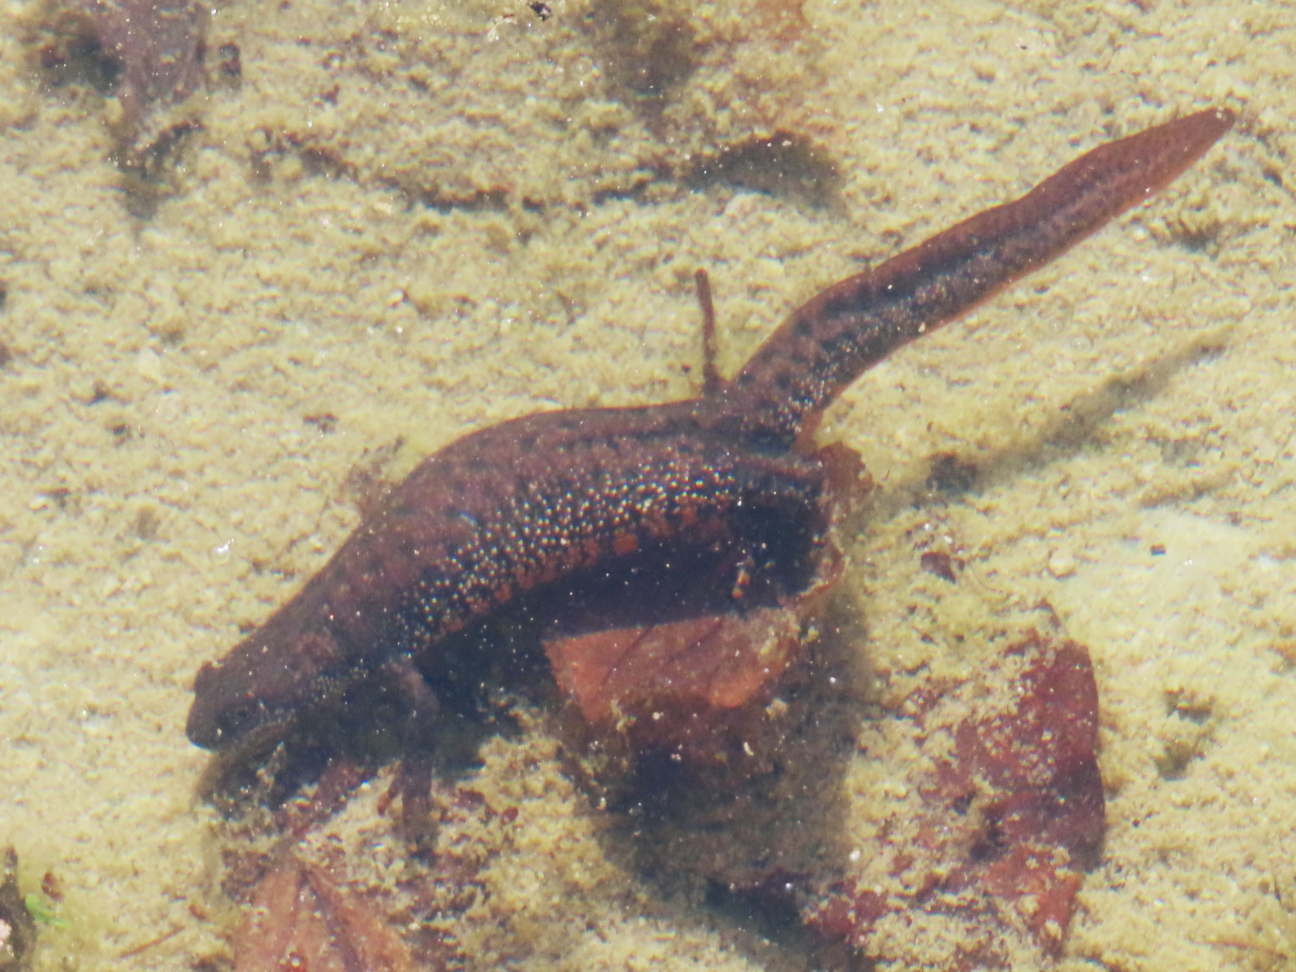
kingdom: Animalia
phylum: Chordata
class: Amphibia
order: Caudata
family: Salamandridae
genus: Triturus
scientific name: Triturus cristatus
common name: Crested newt
